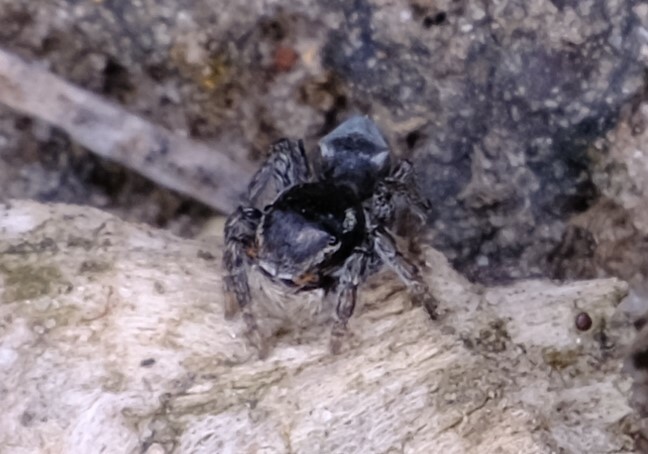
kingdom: Animalia
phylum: Arthropoda
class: Arachnida
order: Araneae
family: Salticidae
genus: Maratus
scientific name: Maratus proszynskii
